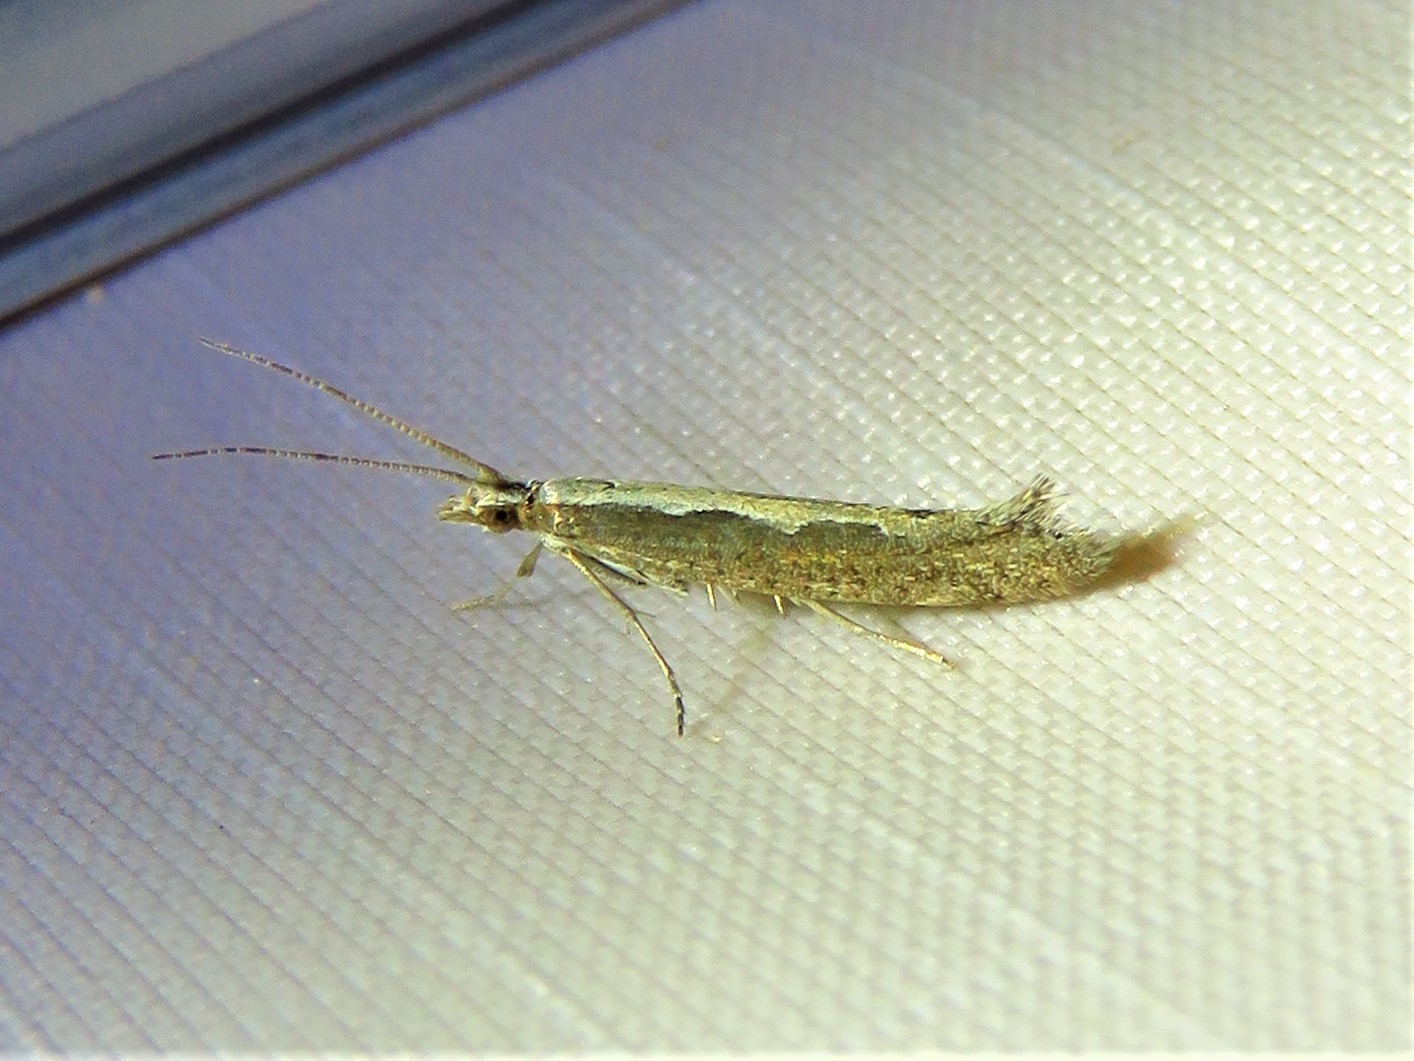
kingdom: Animalia
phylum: Arthropoda
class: Insecta
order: Lepidoptera
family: Plutellidae
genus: Plutella
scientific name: Plutella xylostella
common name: Diamond-back moth
